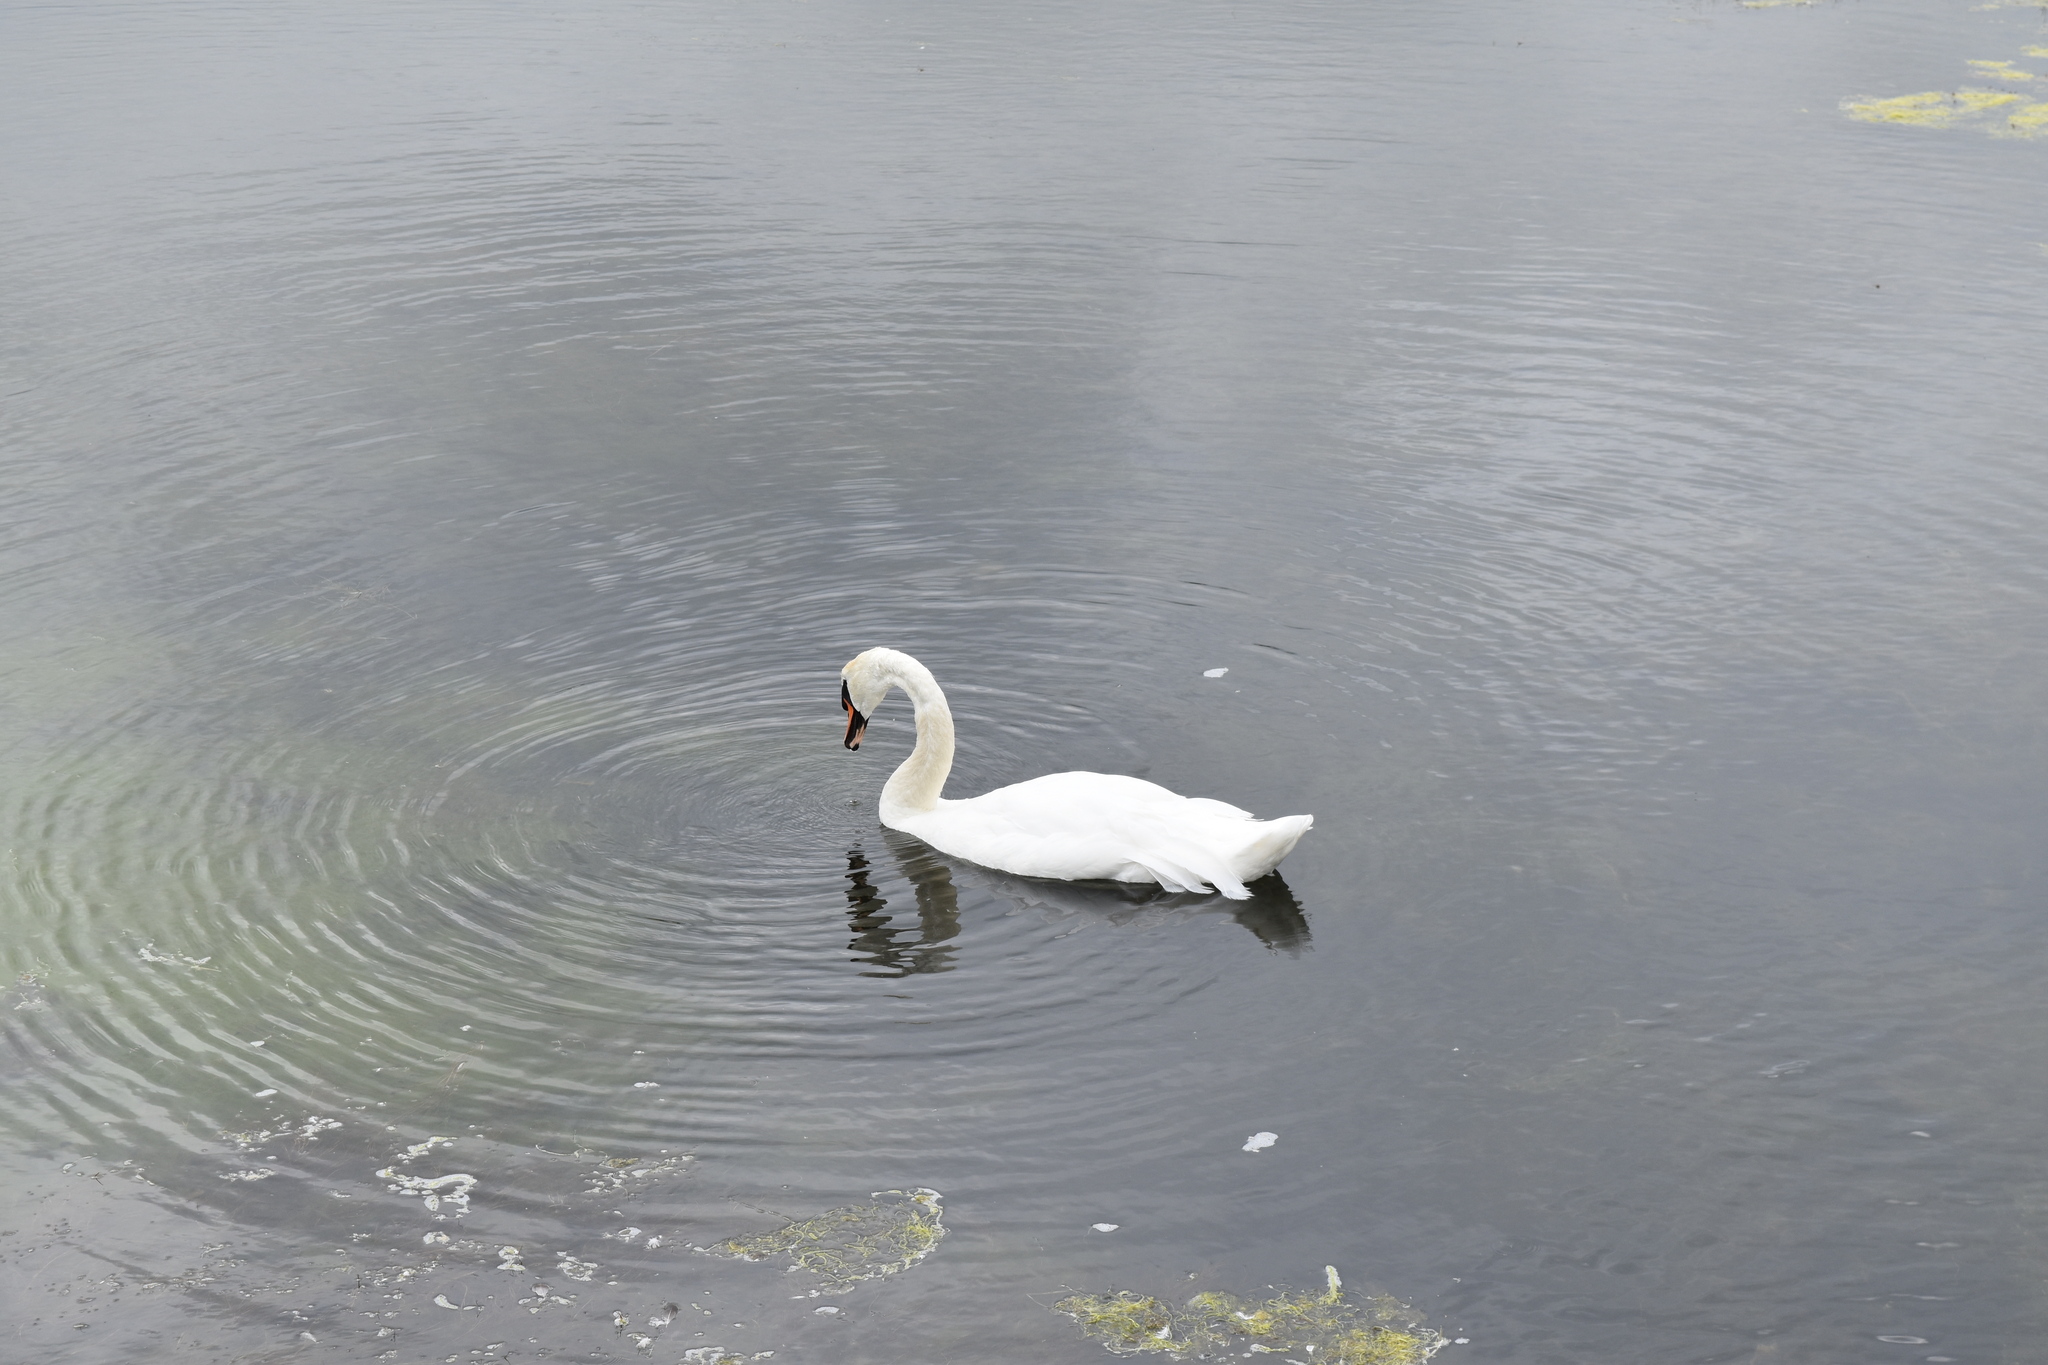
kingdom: Animalia
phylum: Chordata
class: Aves
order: Anseriformes
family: Anatidae
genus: Cygnus
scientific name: Cygnus olor
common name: Mute swan
